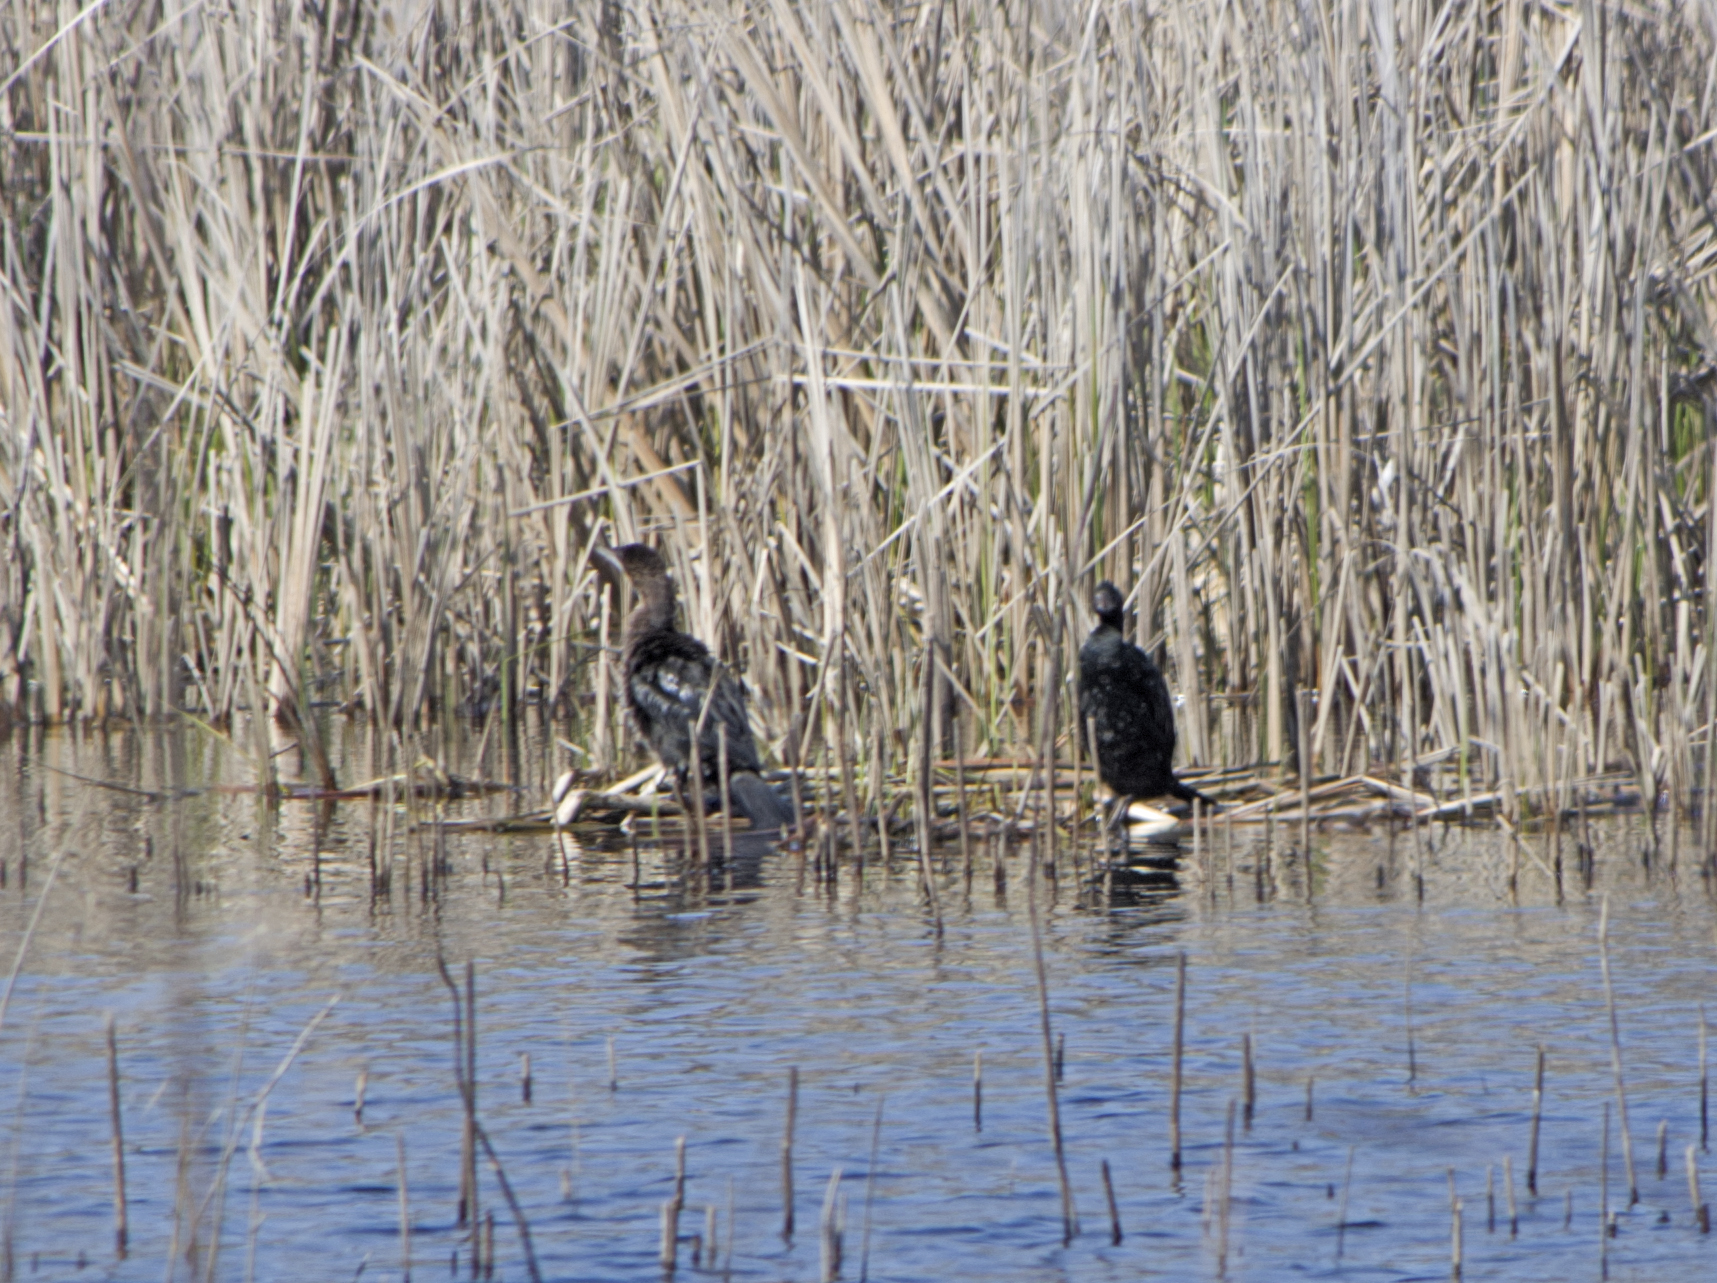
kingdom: Animalia
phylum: Chordata
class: Aves
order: Suliformes
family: Phalacrocoracidae
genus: Microcarbo
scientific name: Microcarbo pygmaeus
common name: Pygmy cormorant
